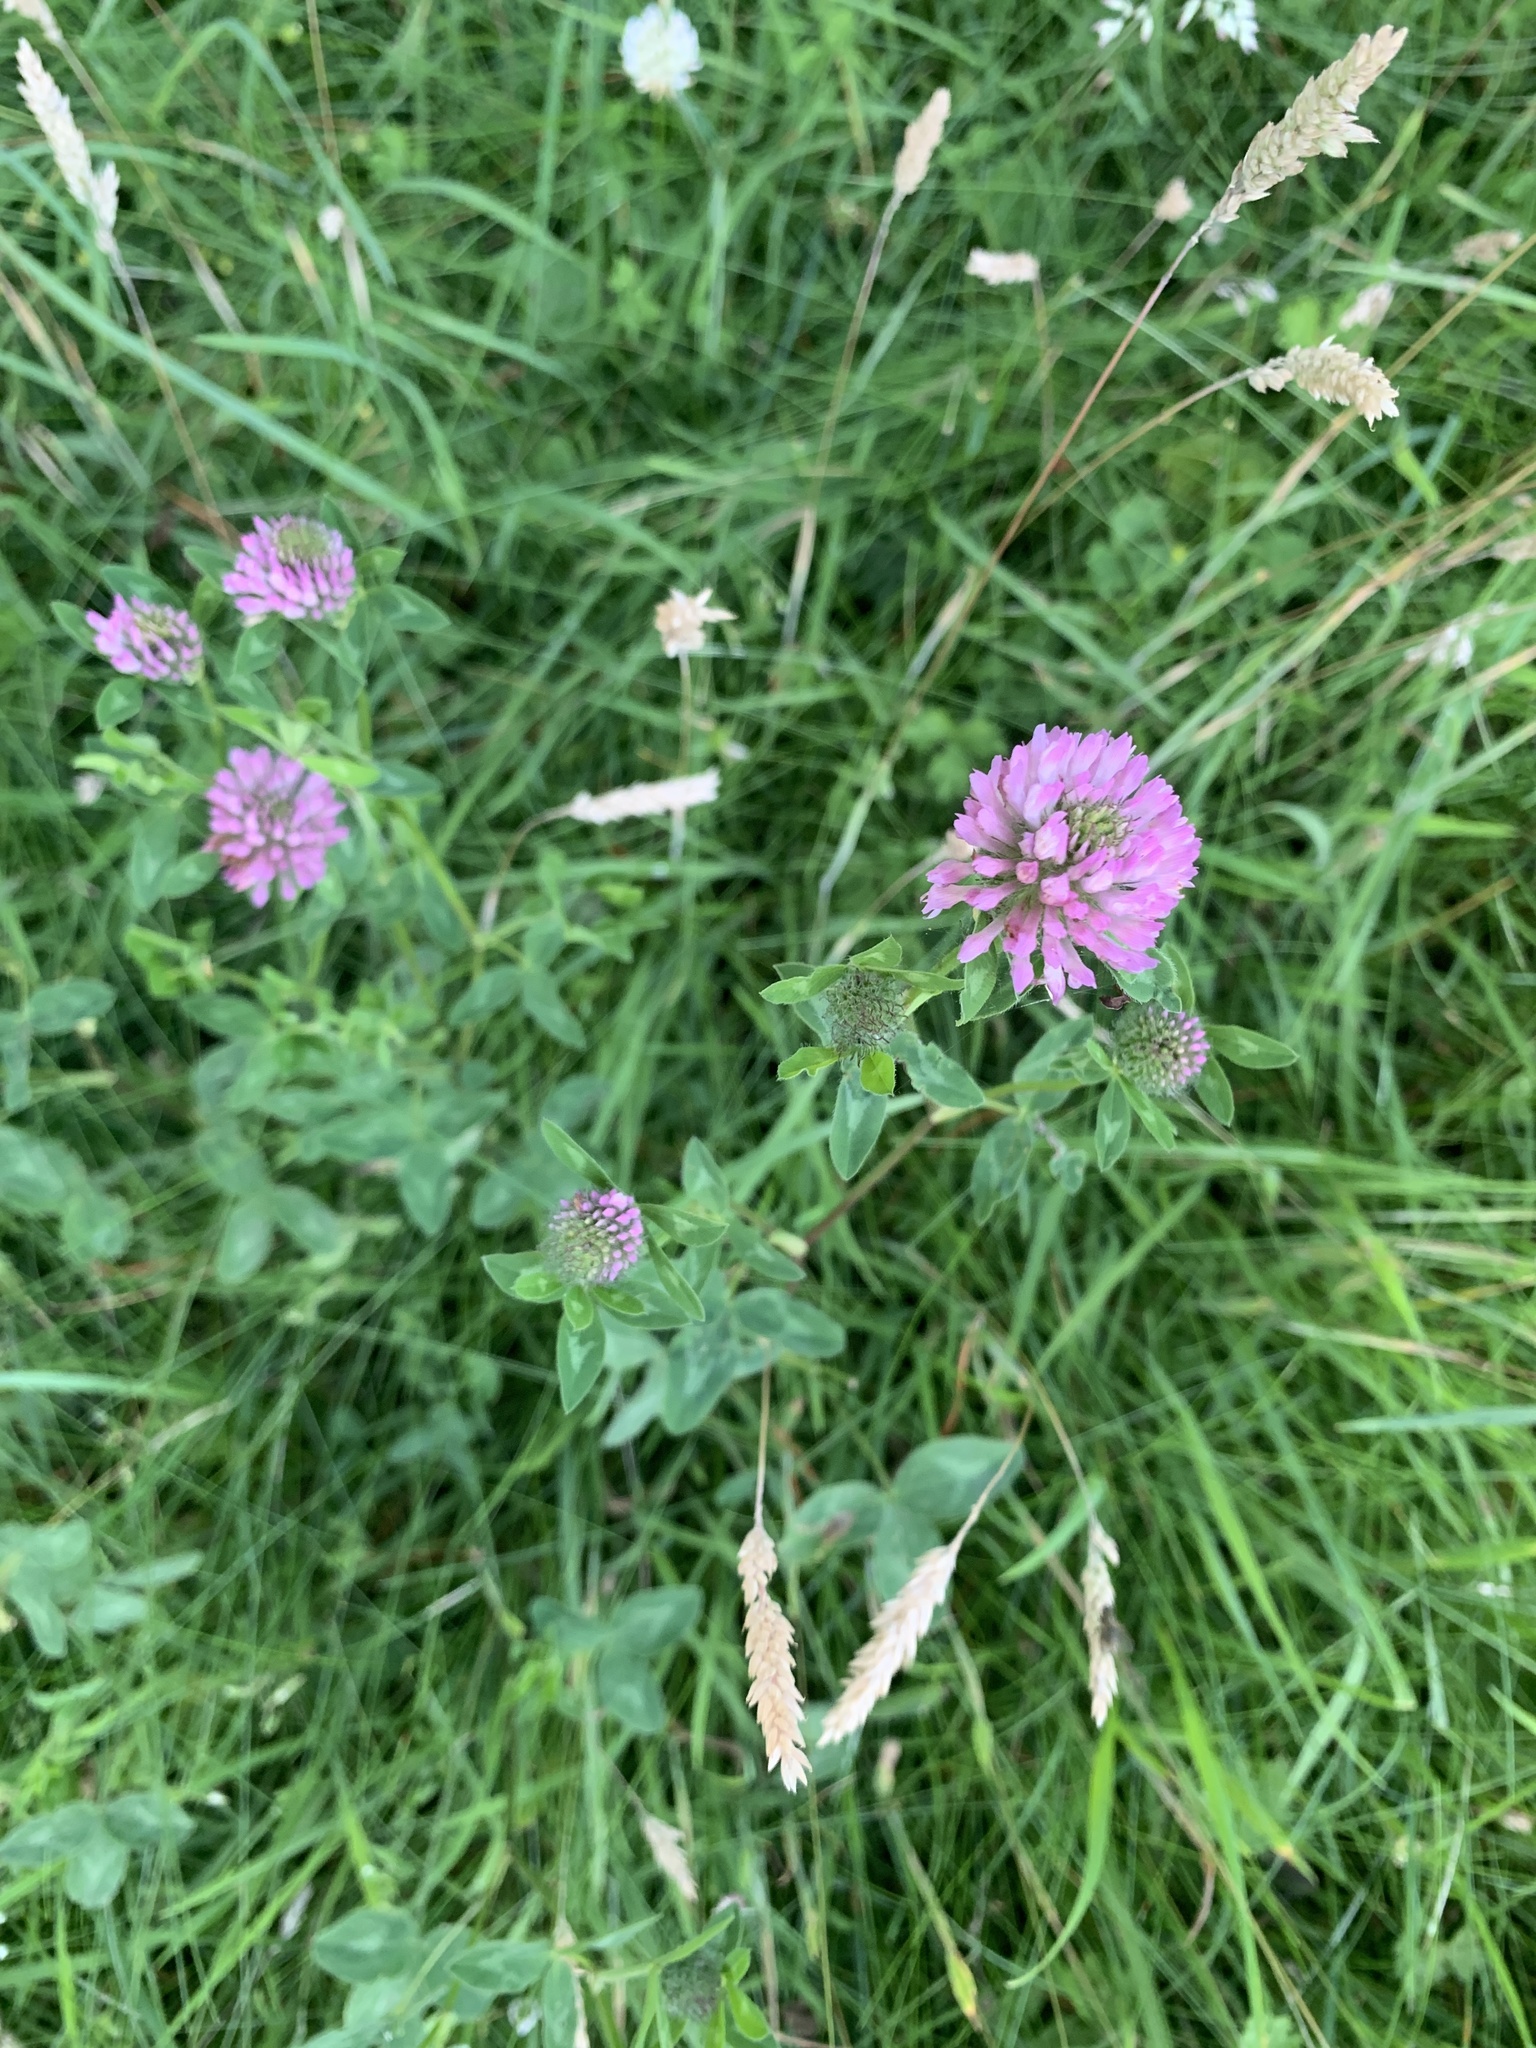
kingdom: Plantae
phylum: Tracheophyta
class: Magnoliopsida
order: Fabales
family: Fabaceae
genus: Trifolium
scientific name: Trifolium pratense
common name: Red clover
